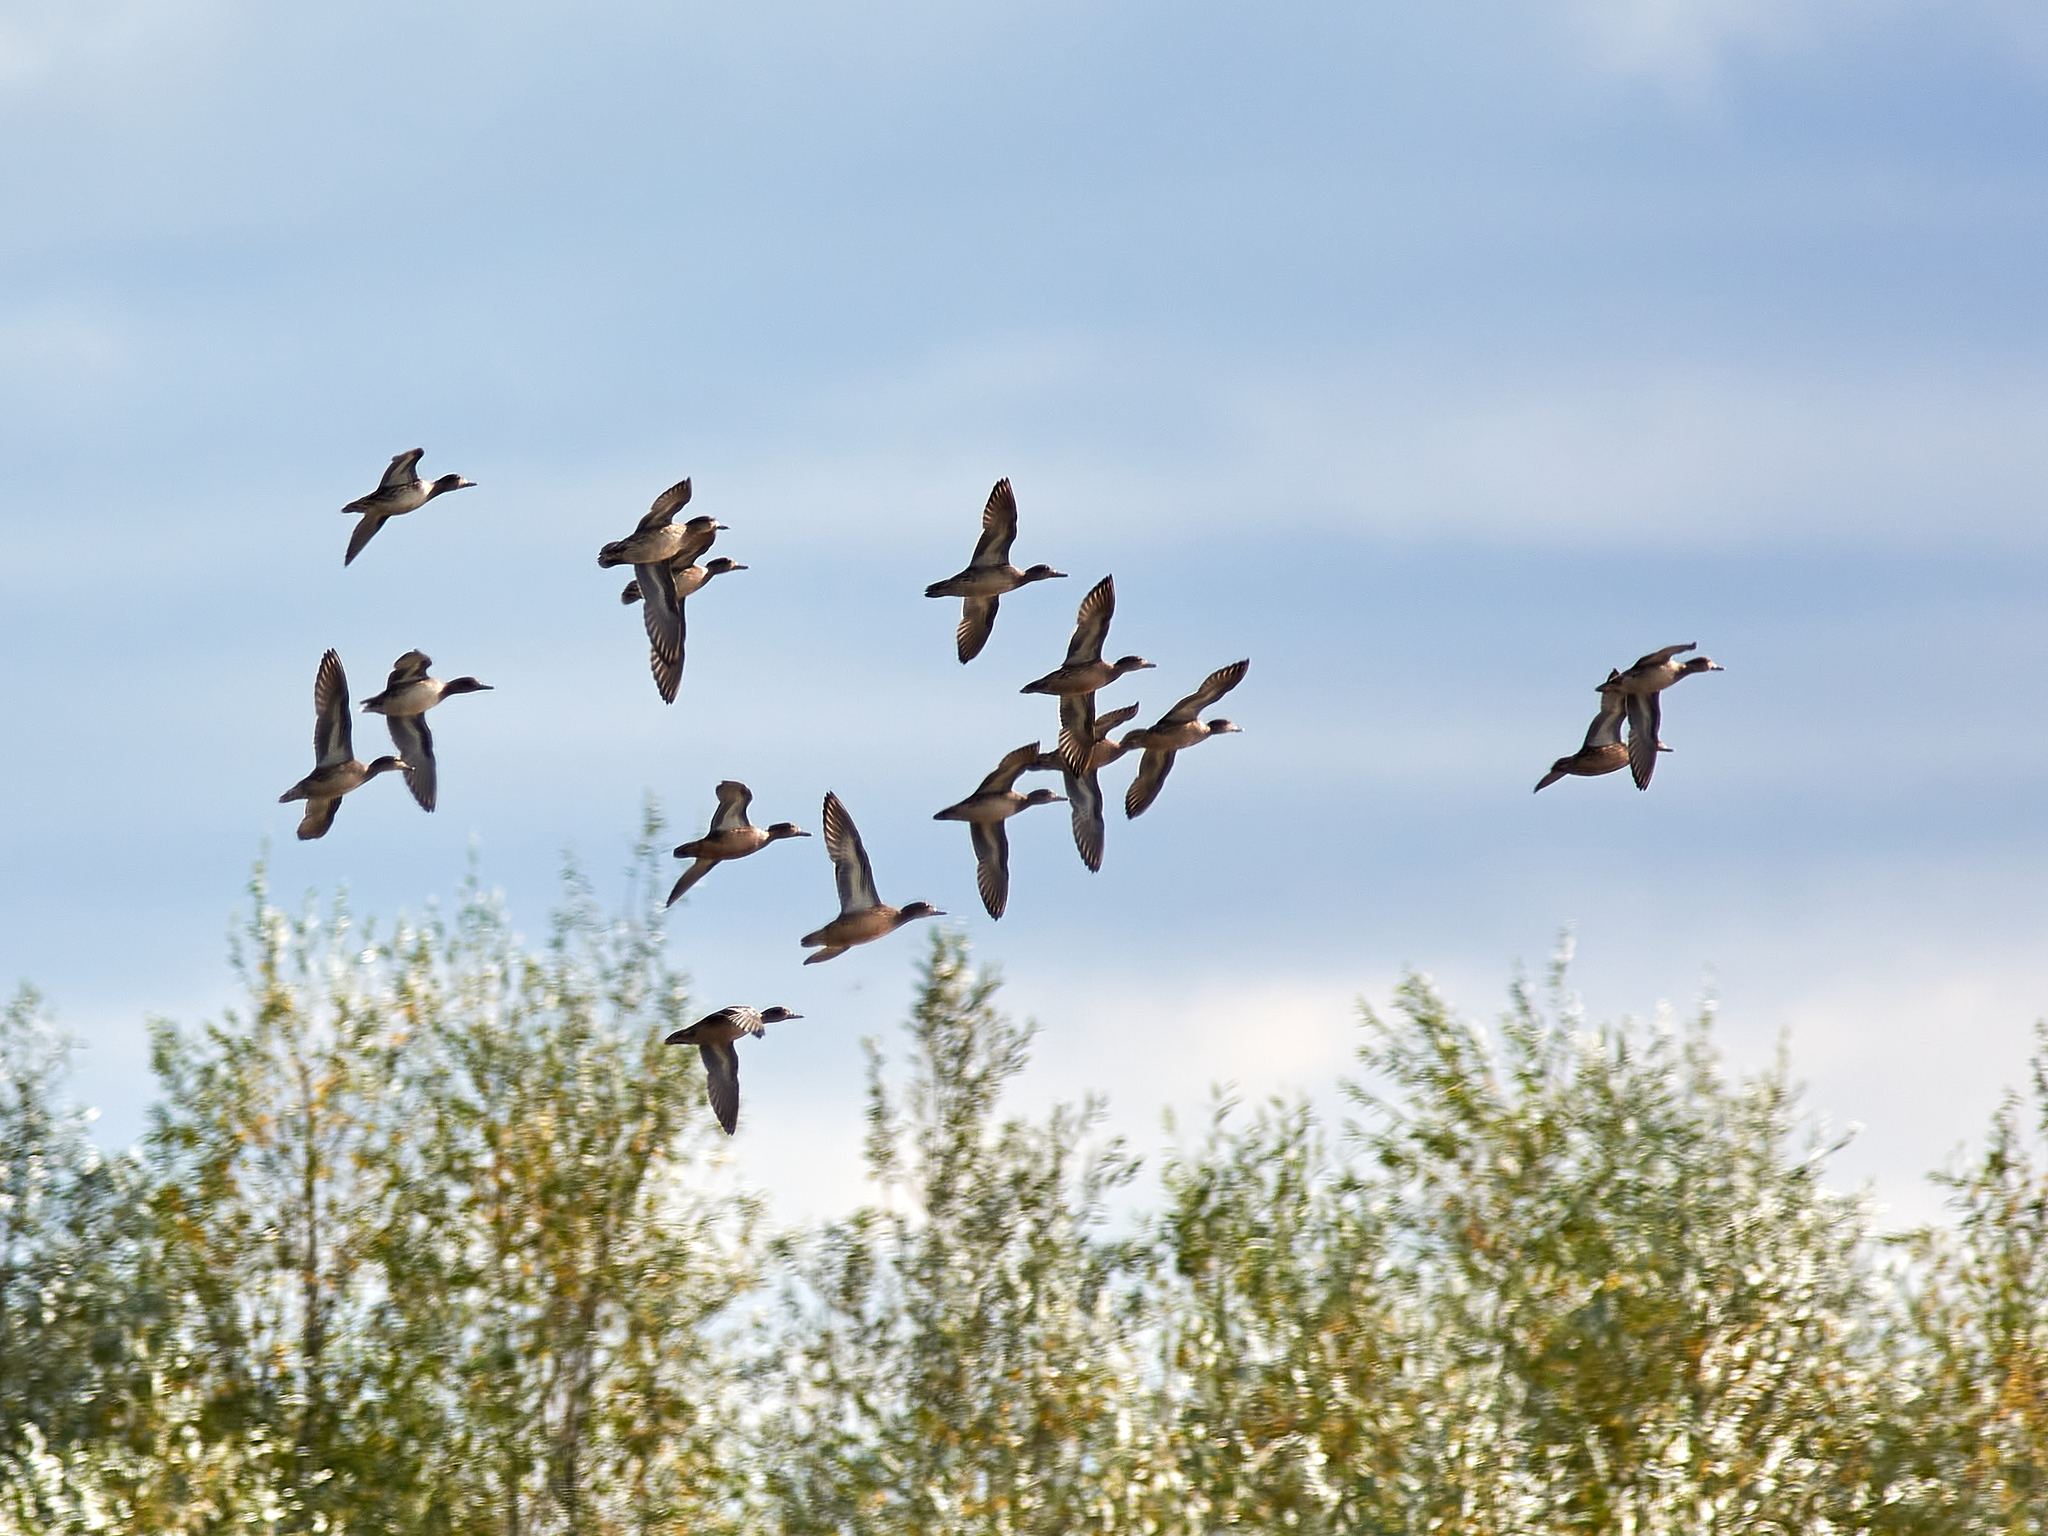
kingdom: Animalia
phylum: Chordata
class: Aves
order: Anseriformes
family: Anatidae
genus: Anas
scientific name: Anas crecca
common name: Eurasian teal
